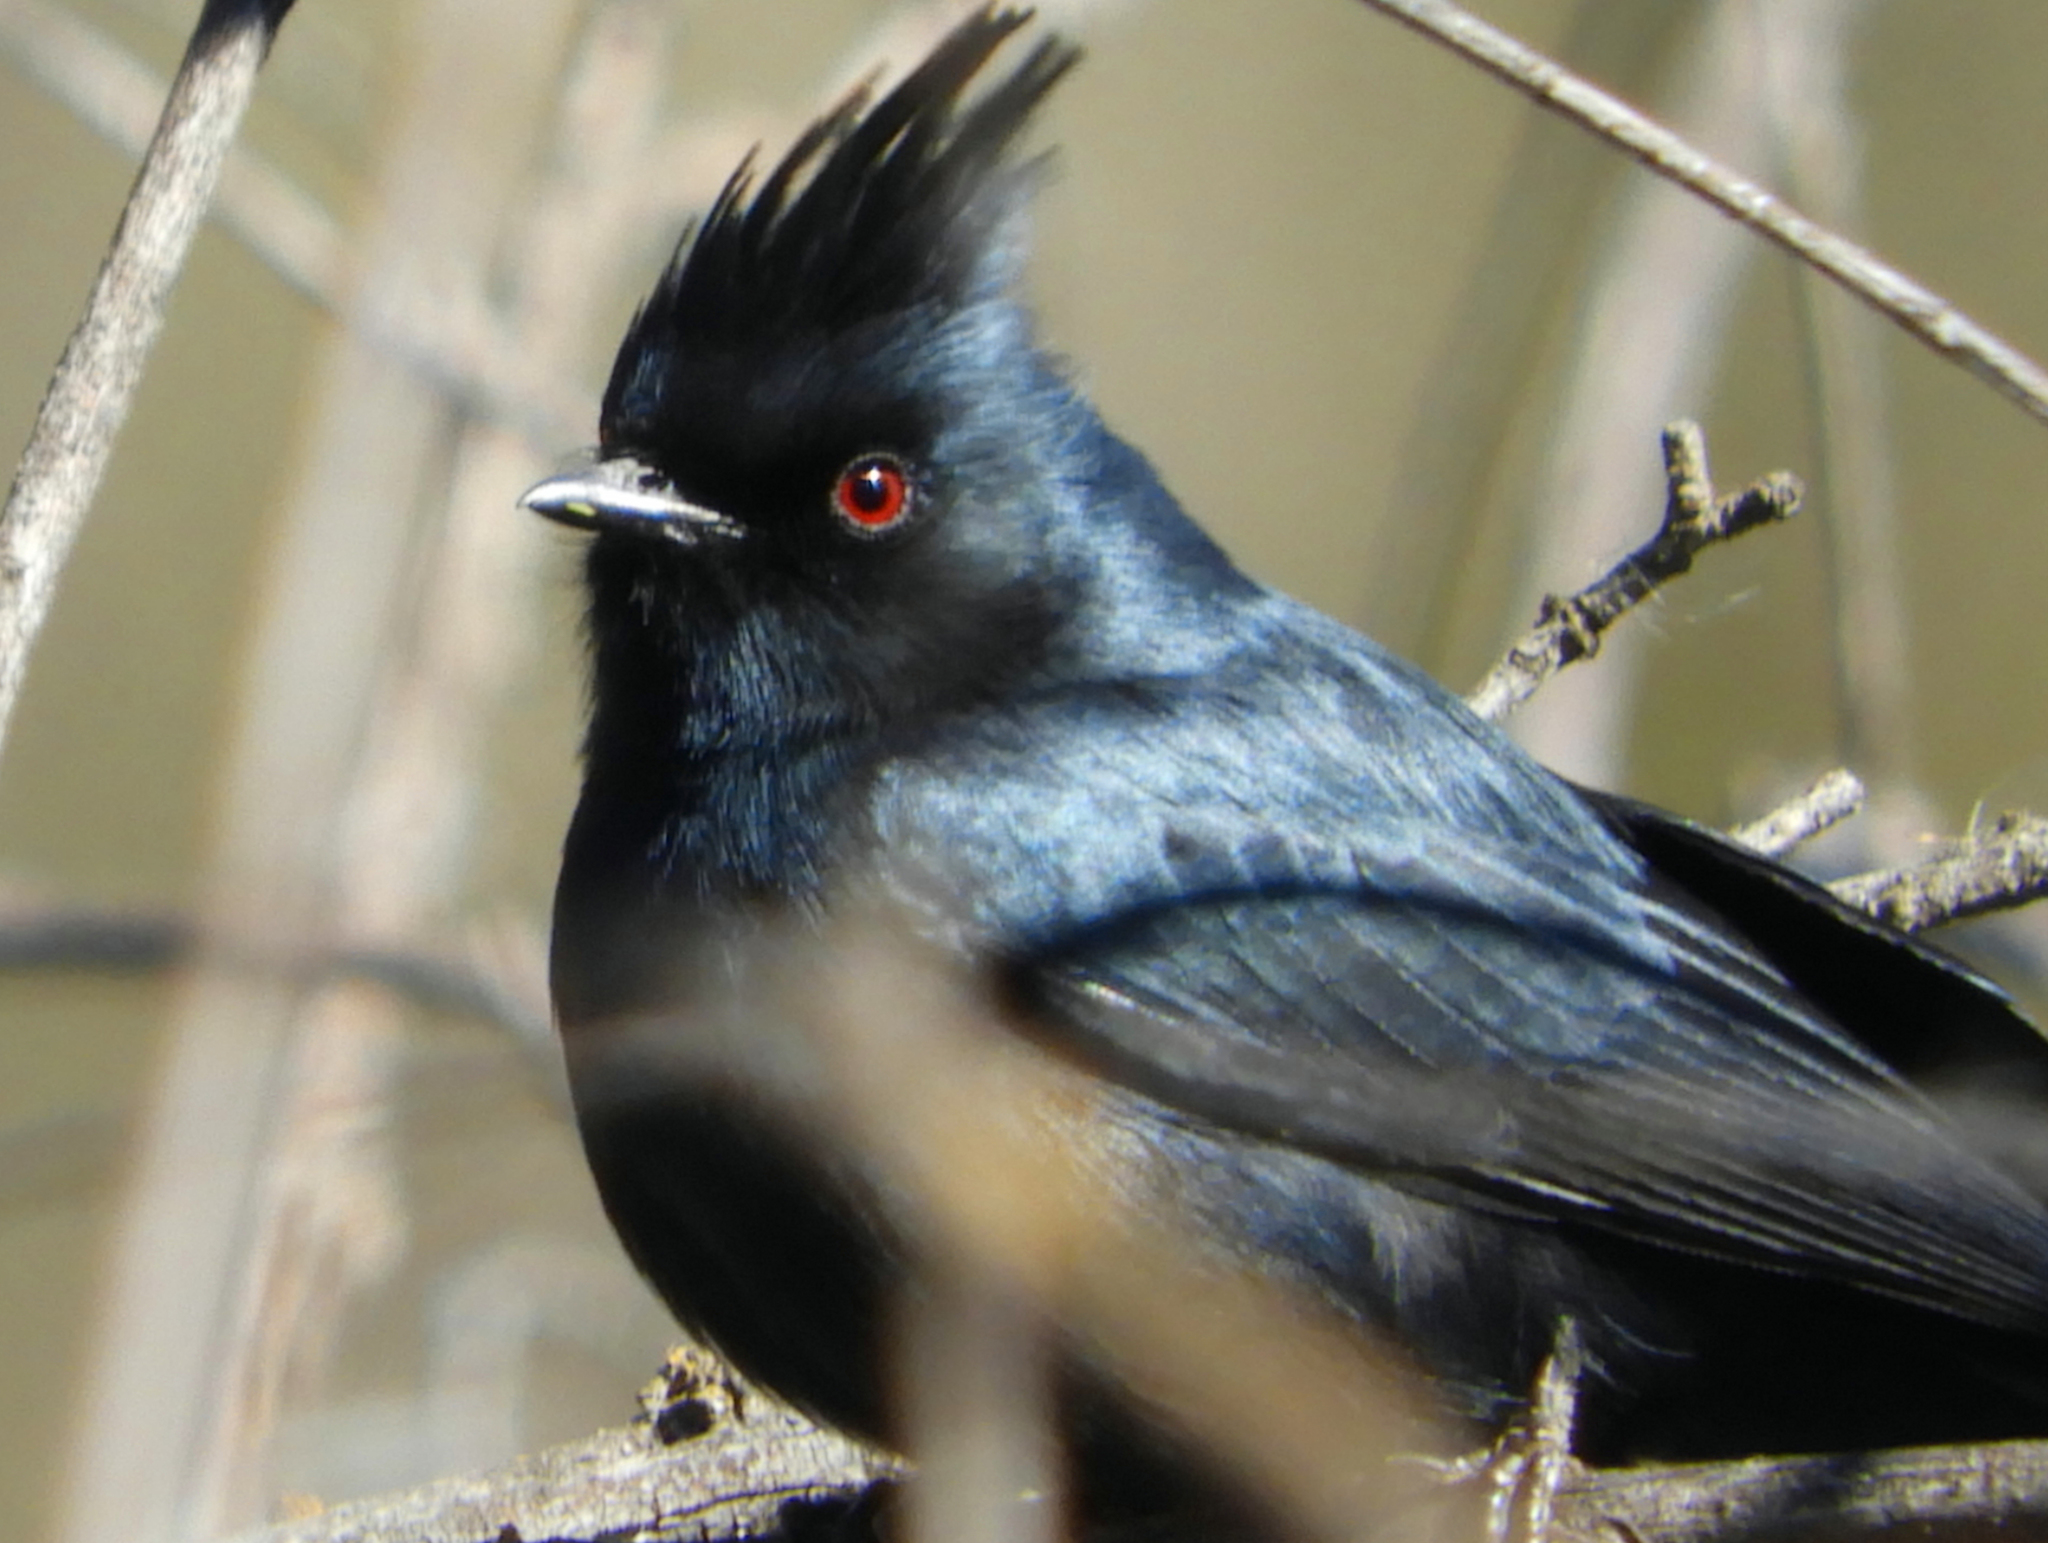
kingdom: Animalia
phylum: Chordata
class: Aves
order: Passeriformes
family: Ptilogonatidae
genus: Phainopepla
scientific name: Phainopepla nitens
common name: Phainopepla
